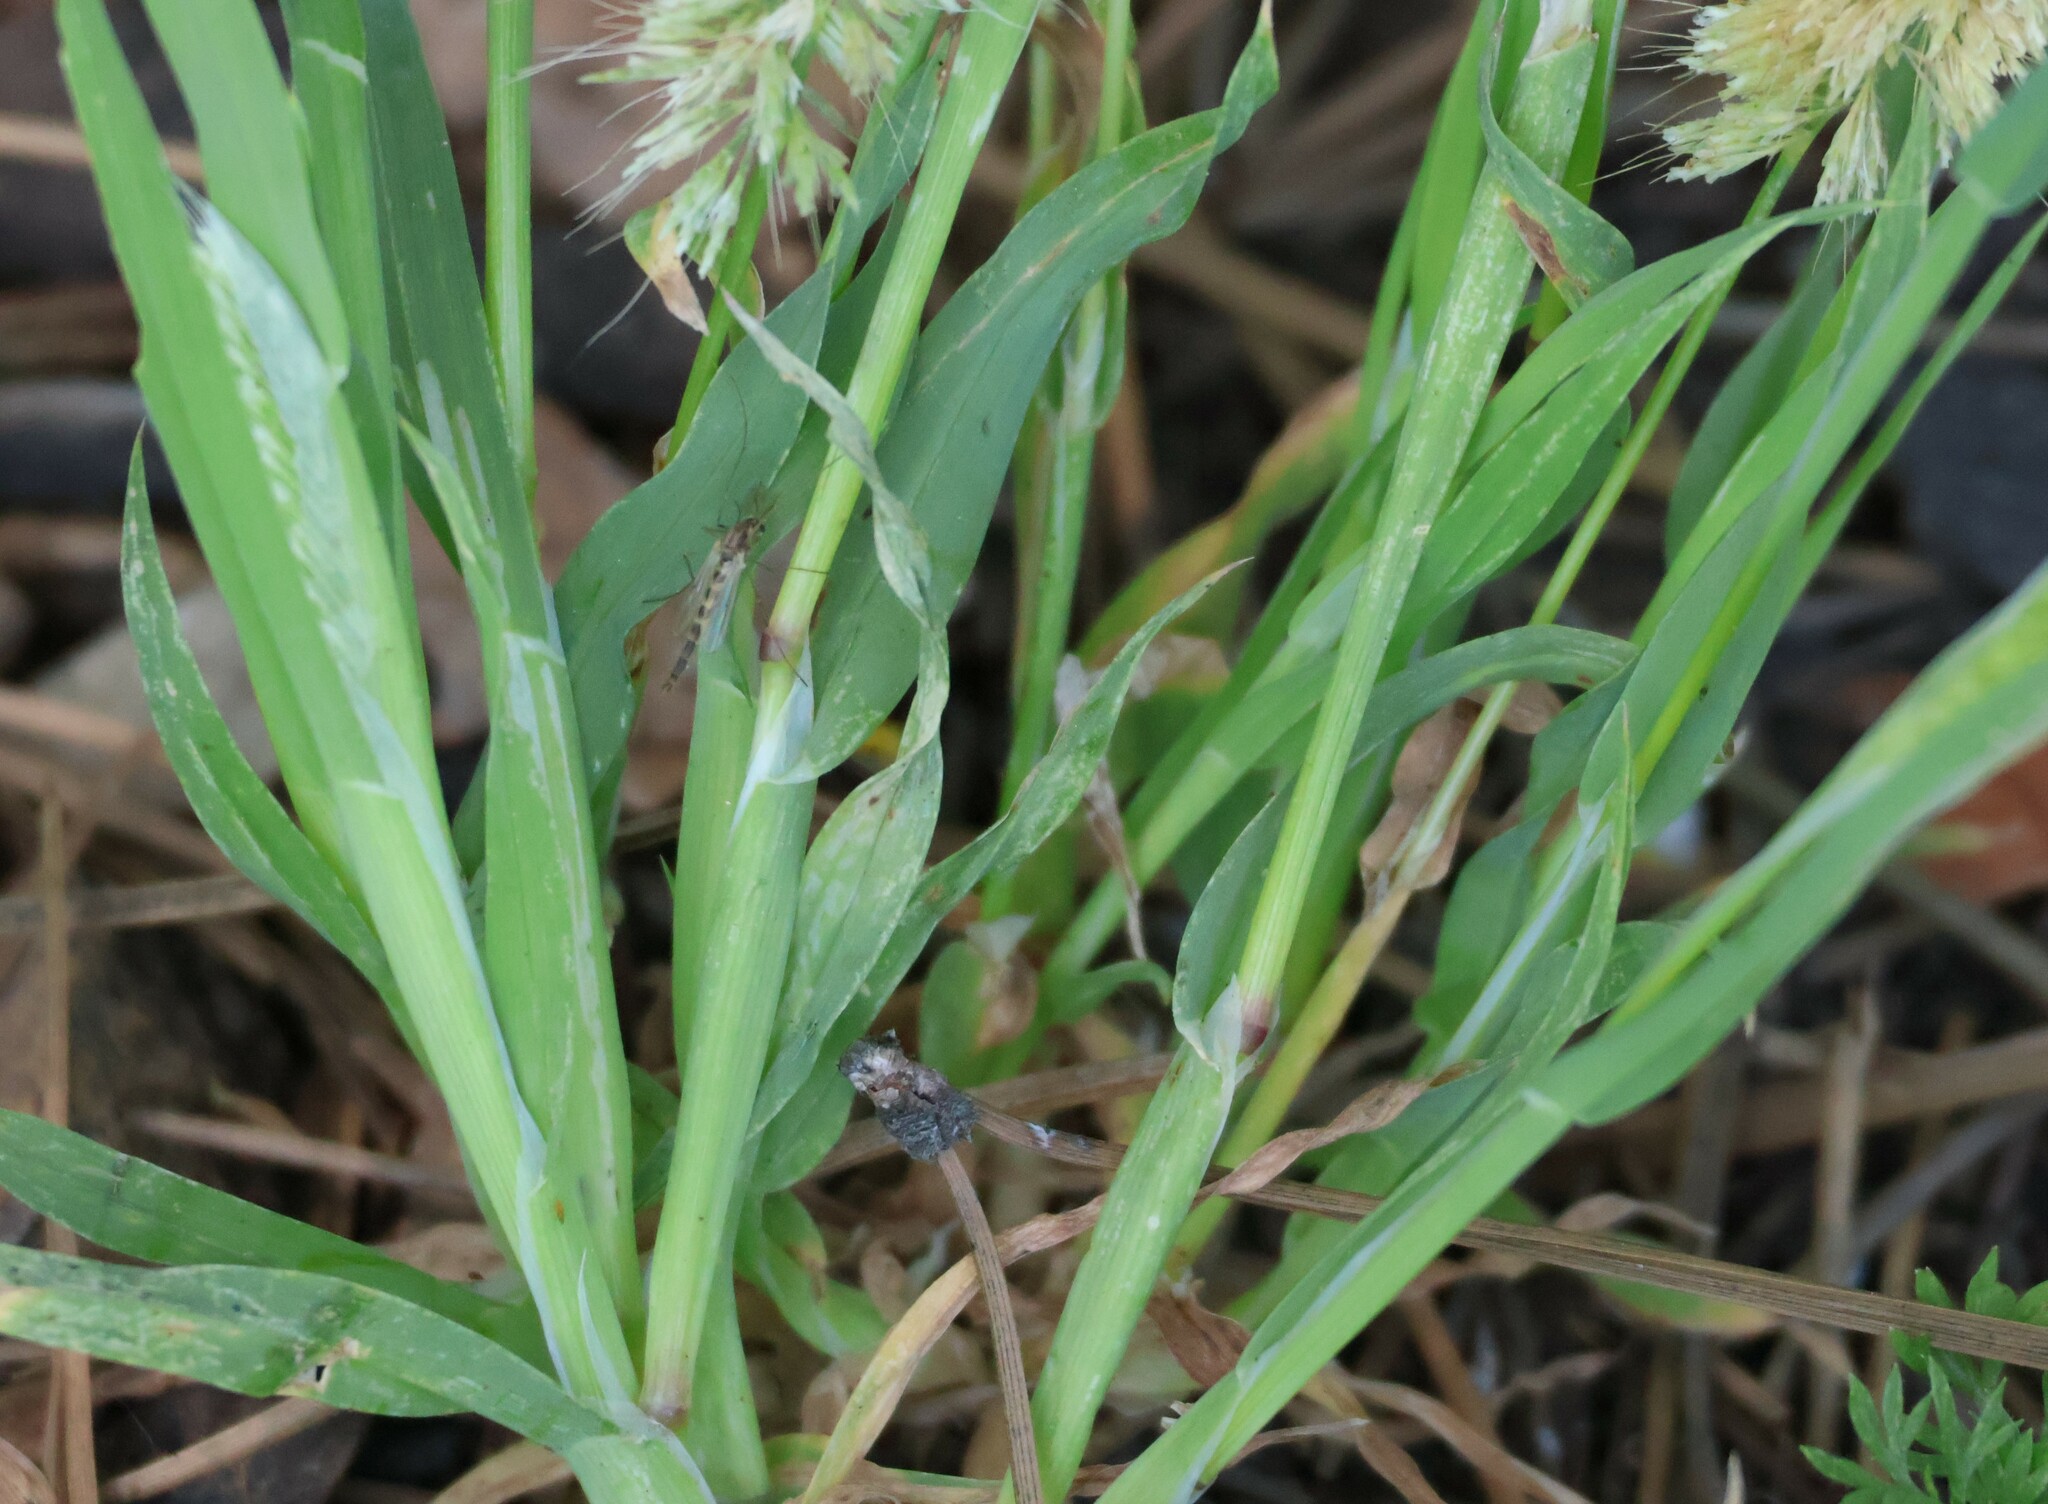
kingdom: Plantae
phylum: Tracheophyta
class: Liliopsida
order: Poales
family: Poaceae
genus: Lamarckia
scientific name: Lamarckia aurea
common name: Golden dog's-tail
